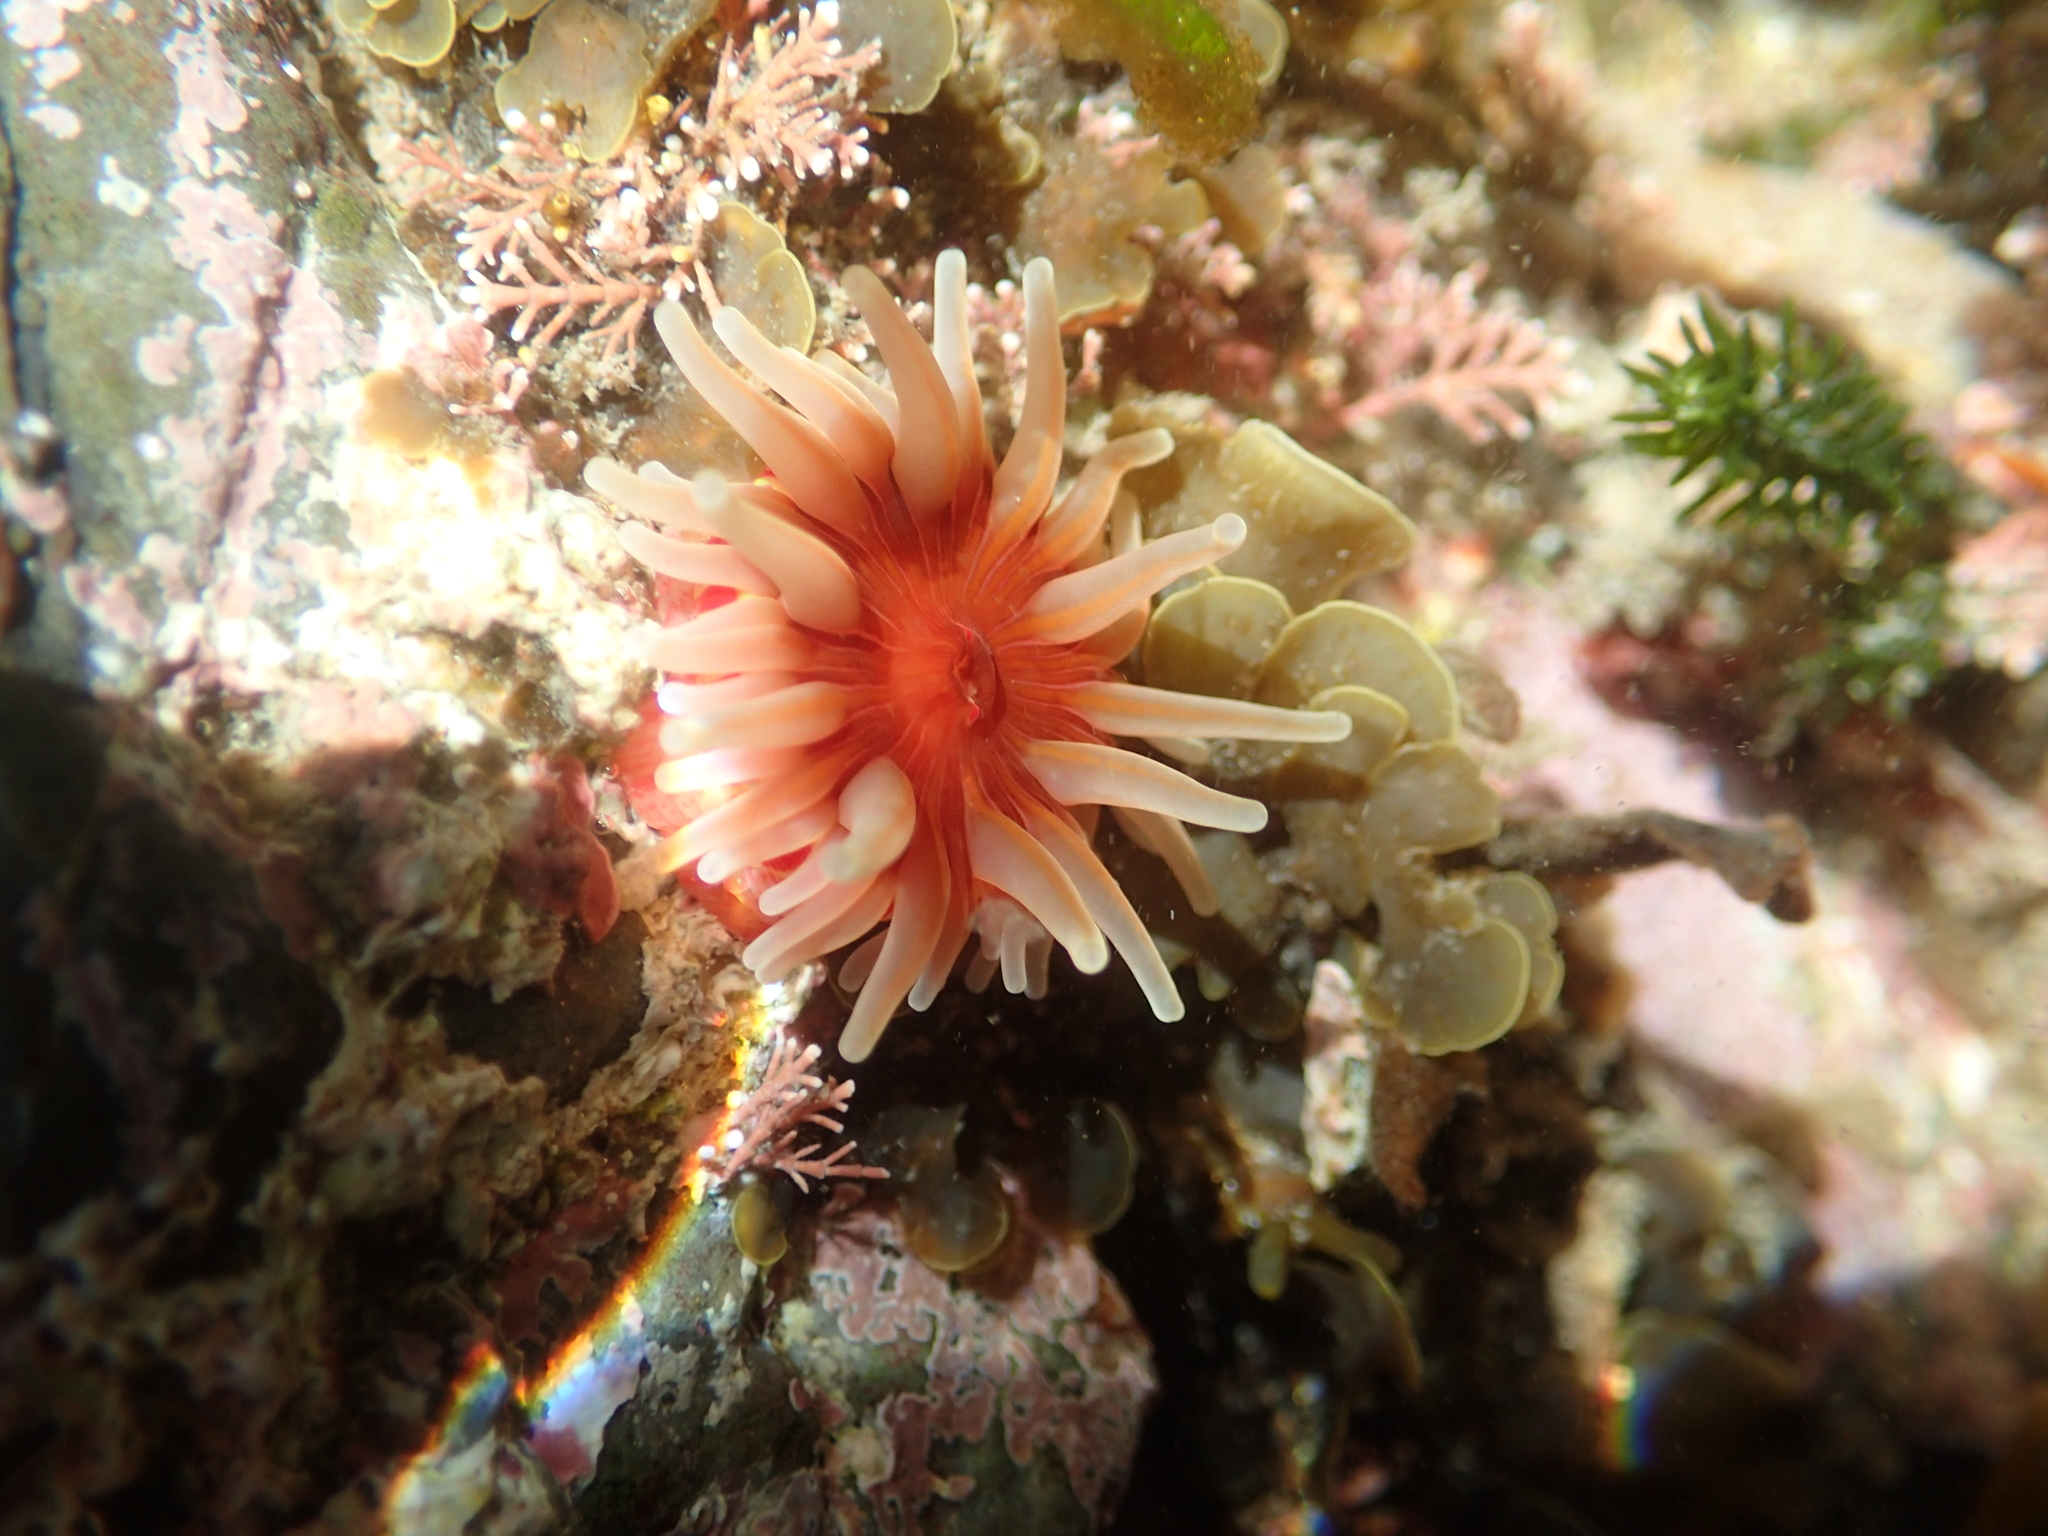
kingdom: Animalia
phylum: Cnidaria
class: Anthozoa
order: Actiniaria
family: Actiniidae
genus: Epiactis
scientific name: Epiactis thompsoni
